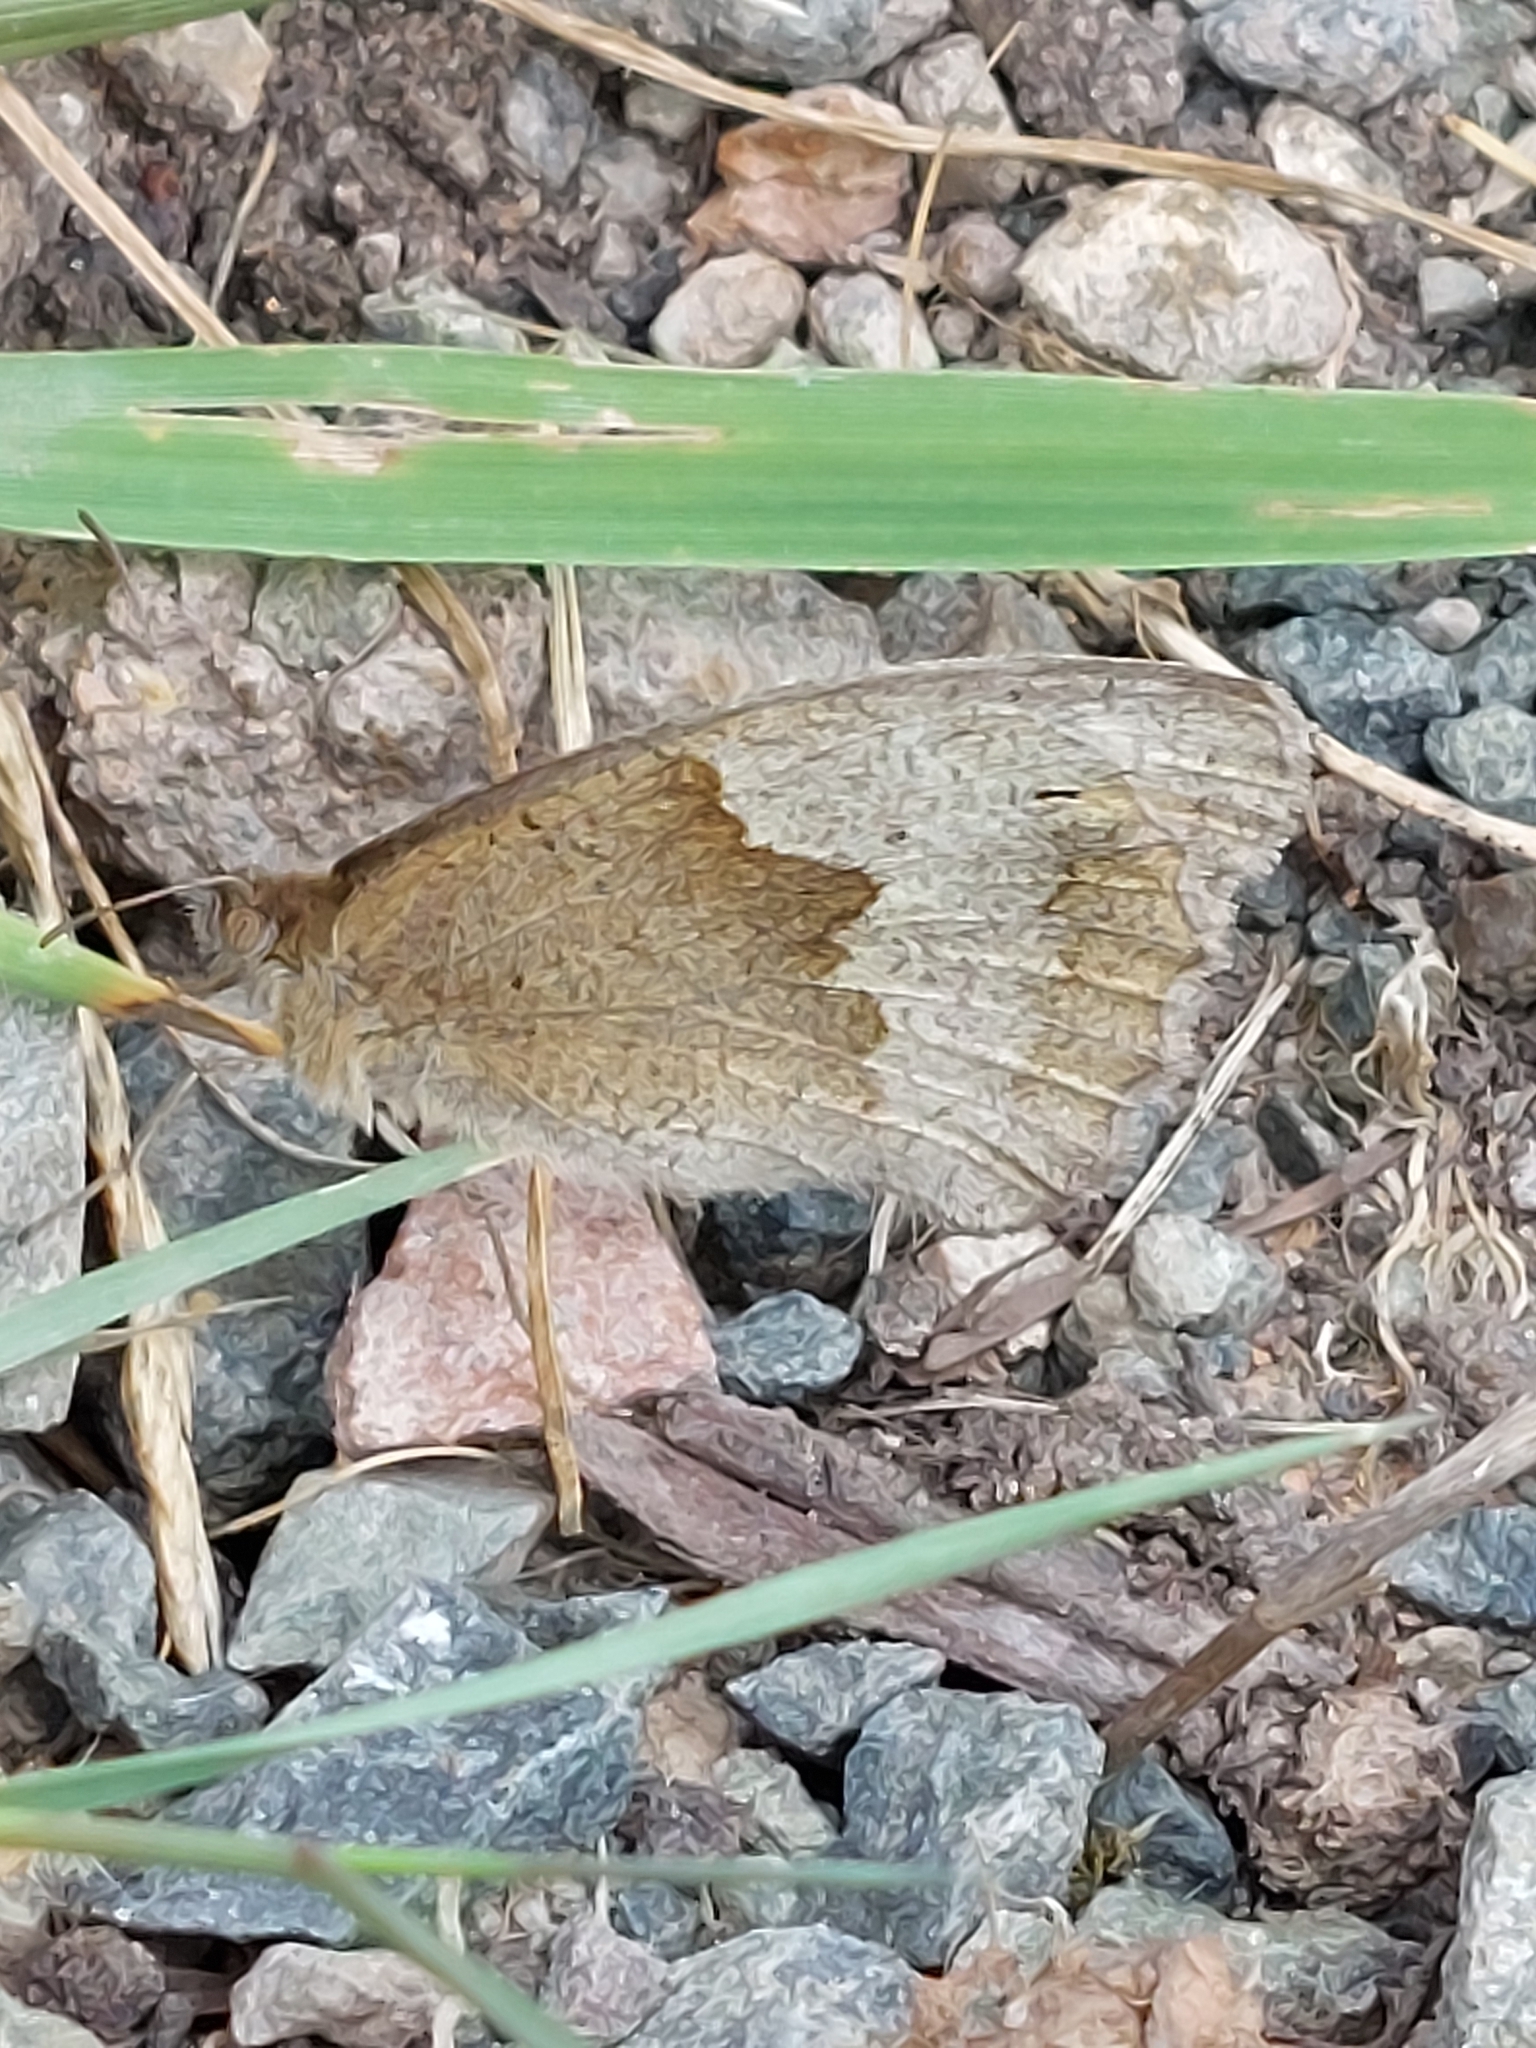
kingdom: Animalia
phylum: Arthropoda
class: Insecta
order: Lepidoptera
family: Nymphalidae
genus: Maniola
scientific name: Maniola jurtina
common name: Meadow brown
